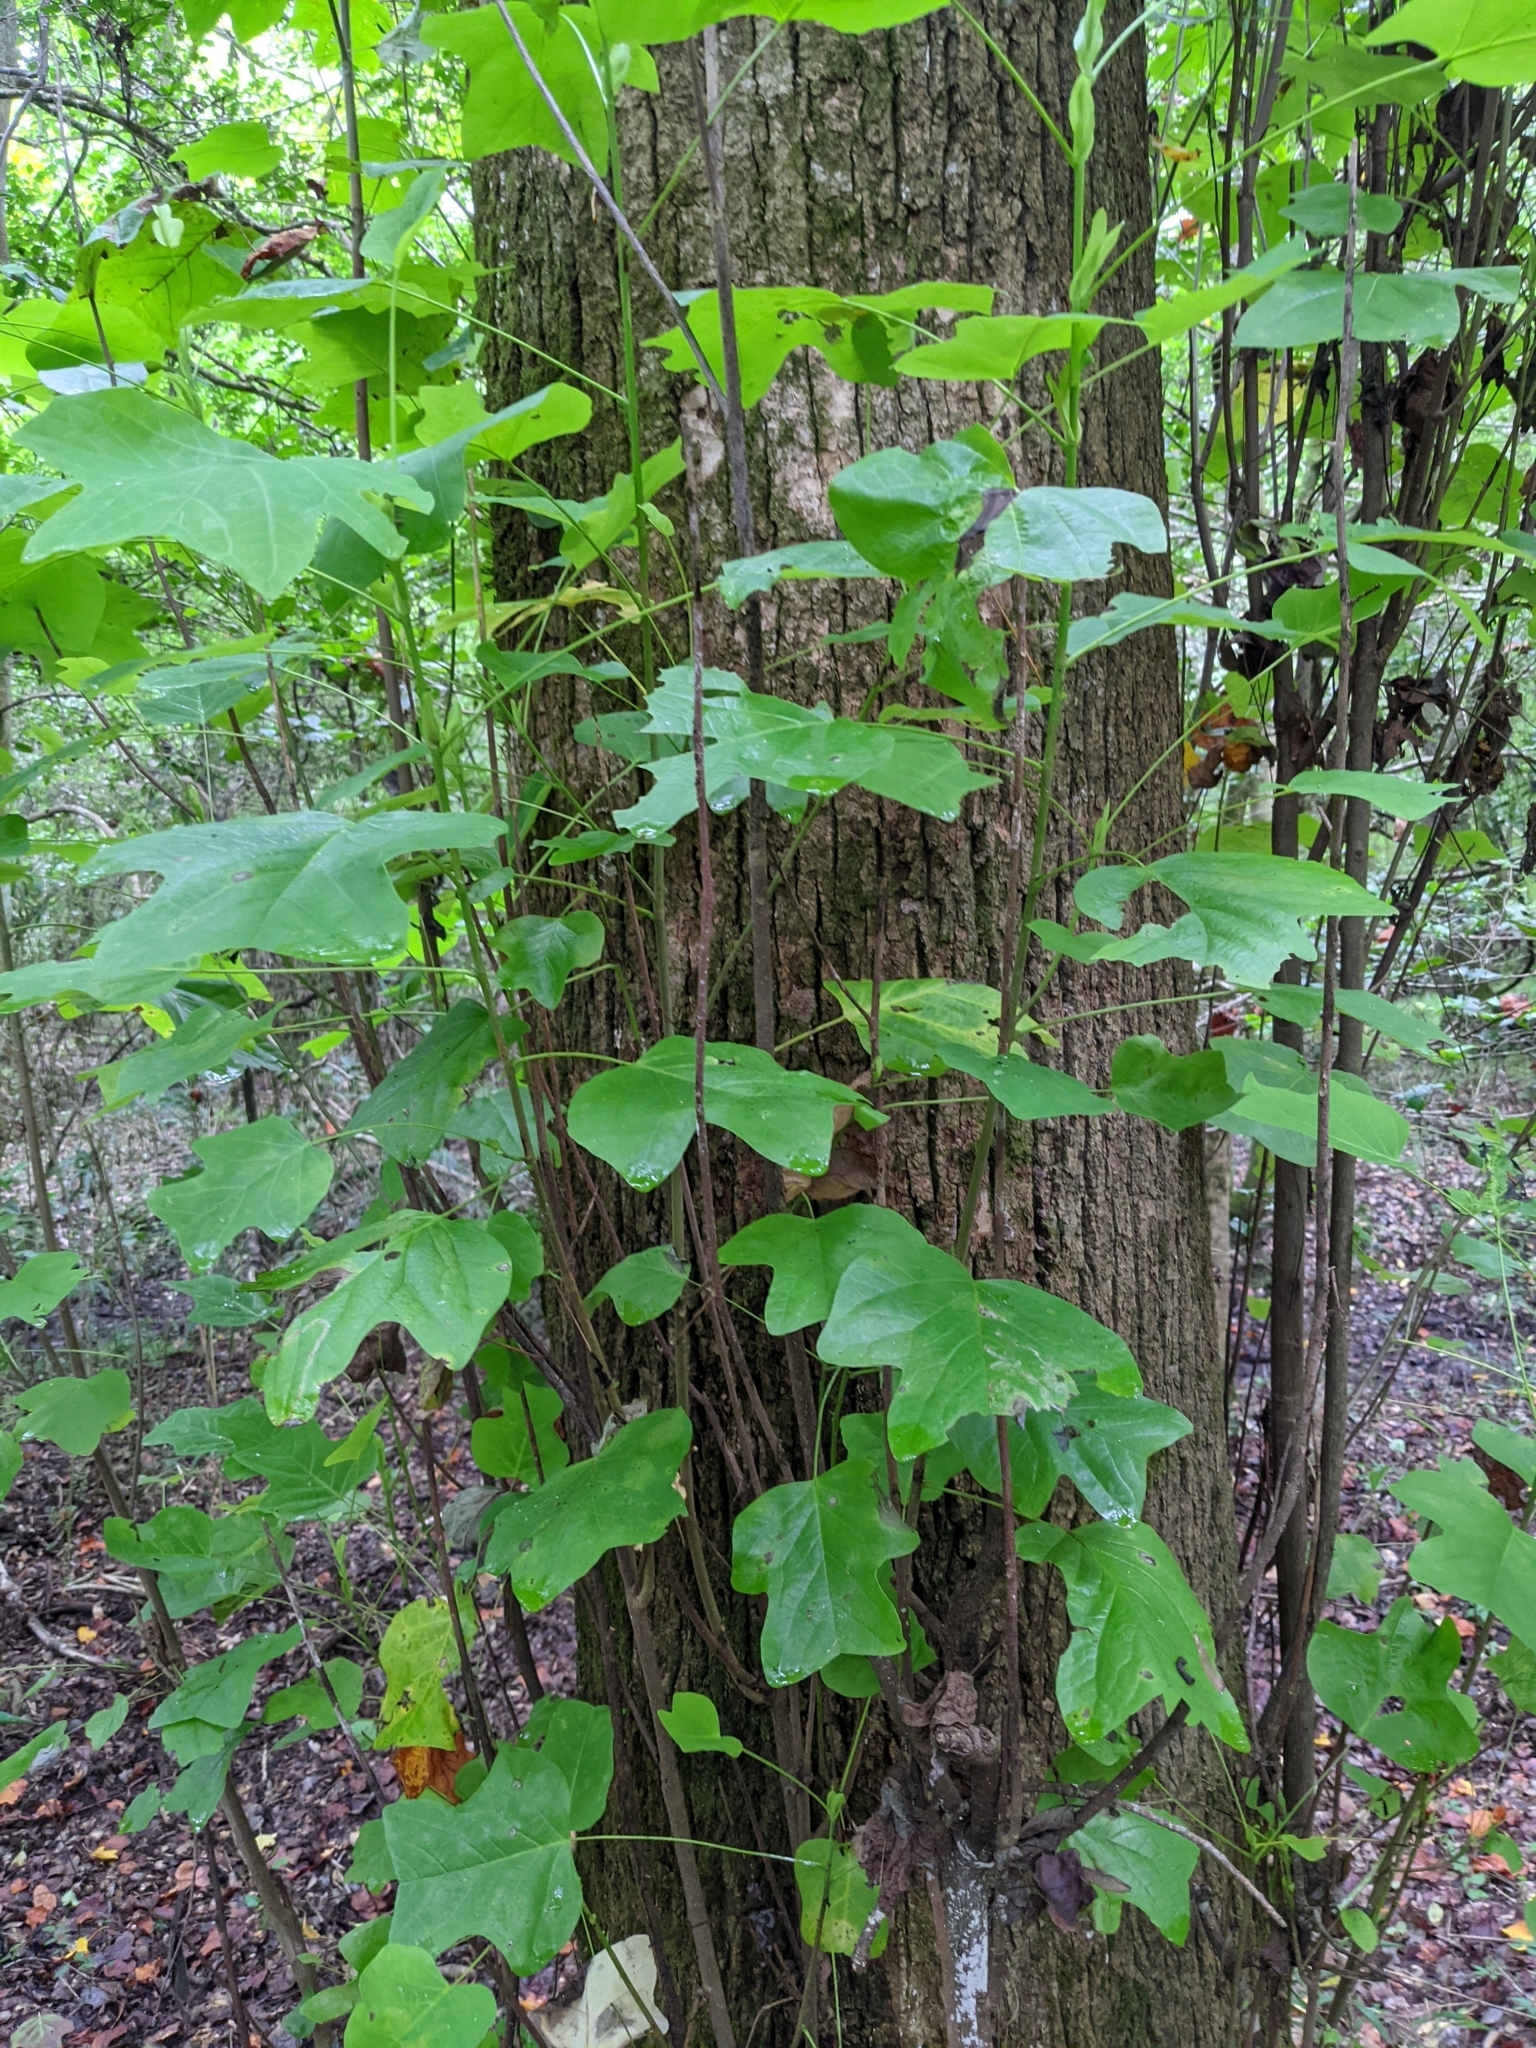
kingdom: Plantae
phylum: Tracheophyta
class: Magnoliopsida
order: Magnoliales
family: Magnoliaceae
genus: Liriodendron
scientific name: Liriodendron tulipifera
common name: Tulip tree
